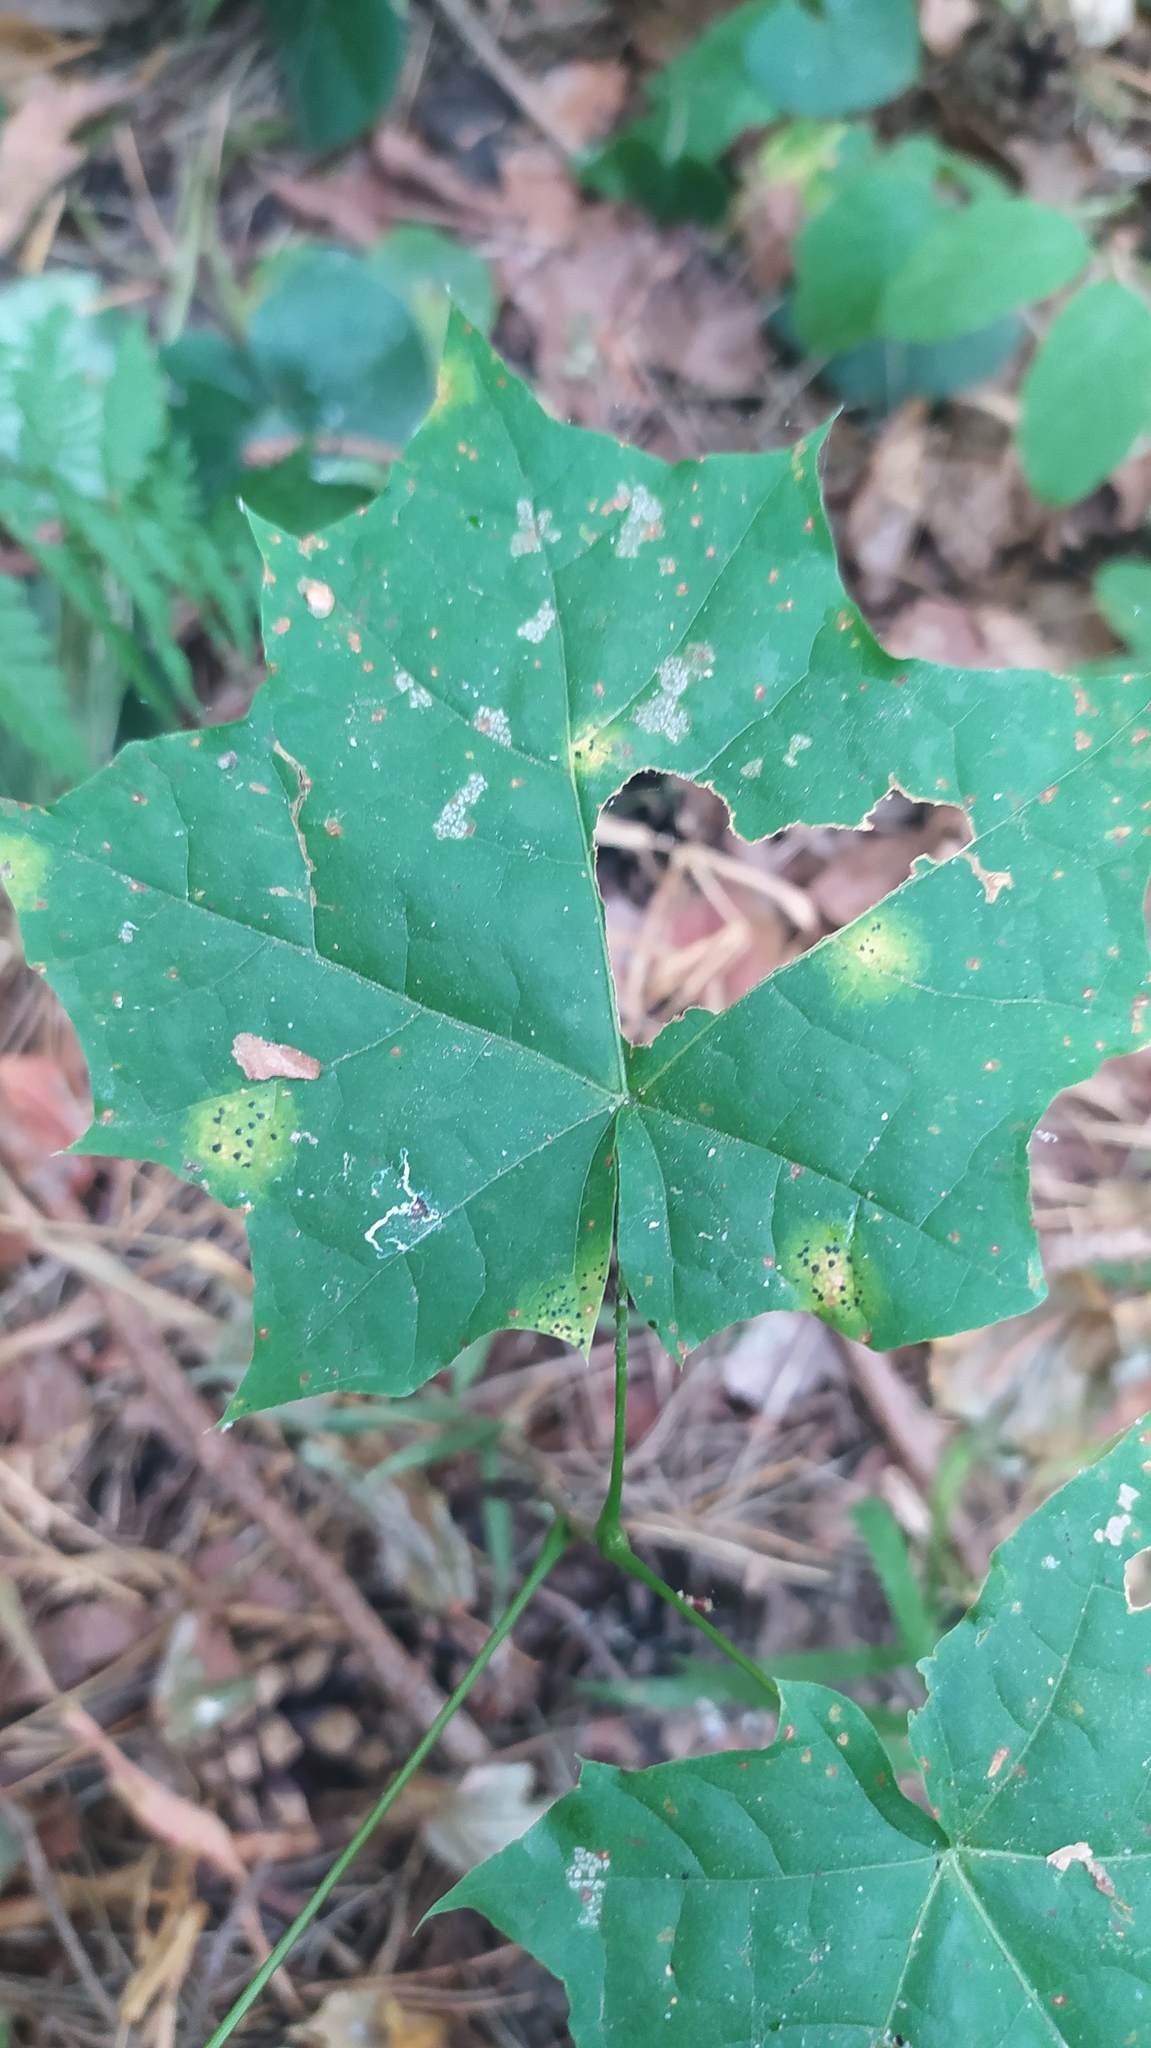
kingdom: Fungi
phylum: Ascomycota
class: Leotiomycetes
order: Rhytismatales
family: Rhytismataceae
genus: Rhytisma
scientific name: Rhytisma acerinum
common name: European tar spot
